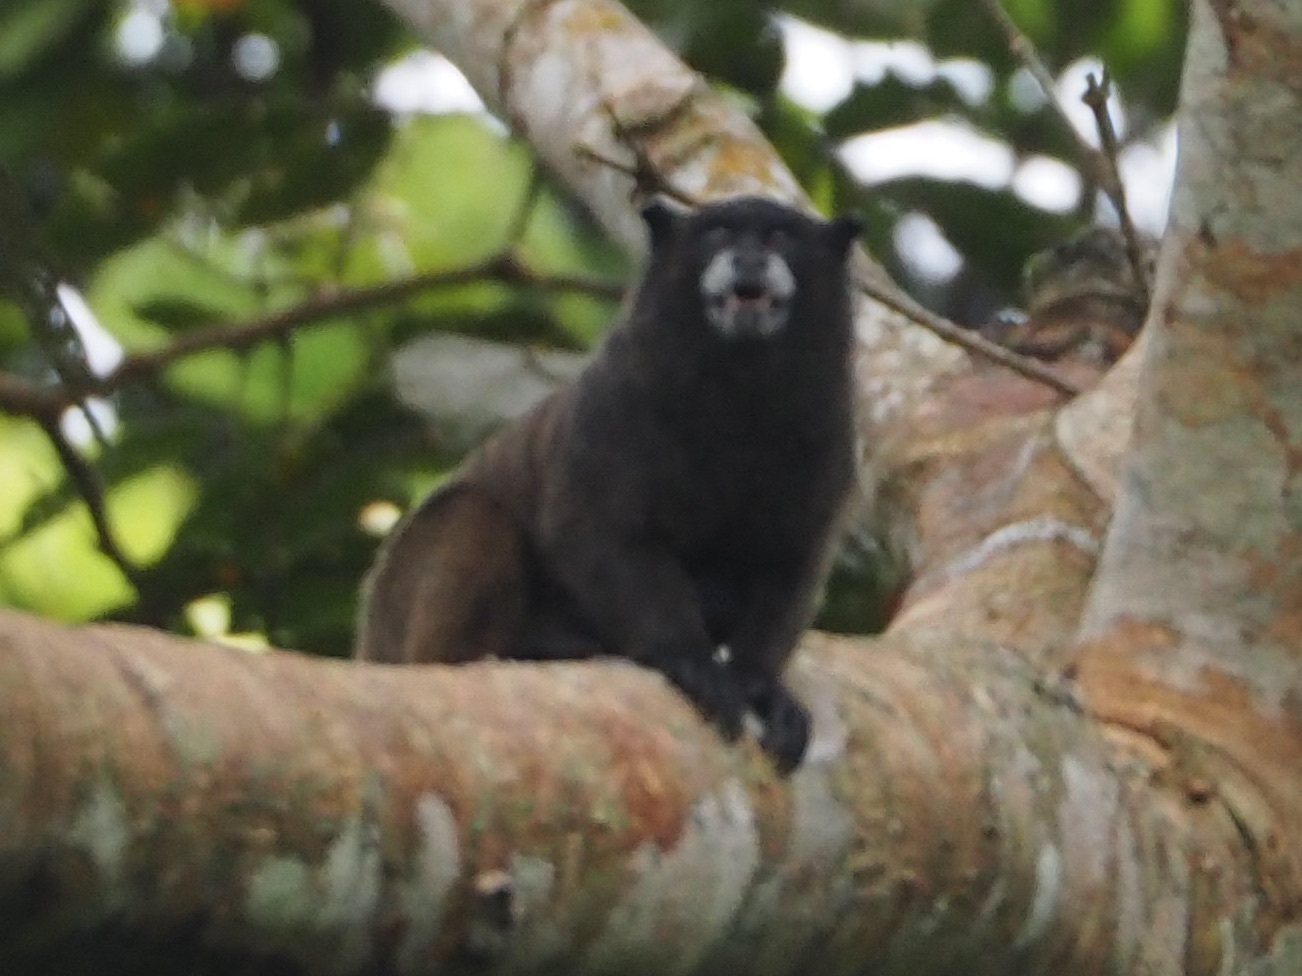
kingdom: Animalia
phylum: Chordata
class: Mammalia
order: Primates
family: Callitrichidae
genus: Leontocebus
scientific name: Leontocebus nigricollis
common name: Black-mantled tamarin
